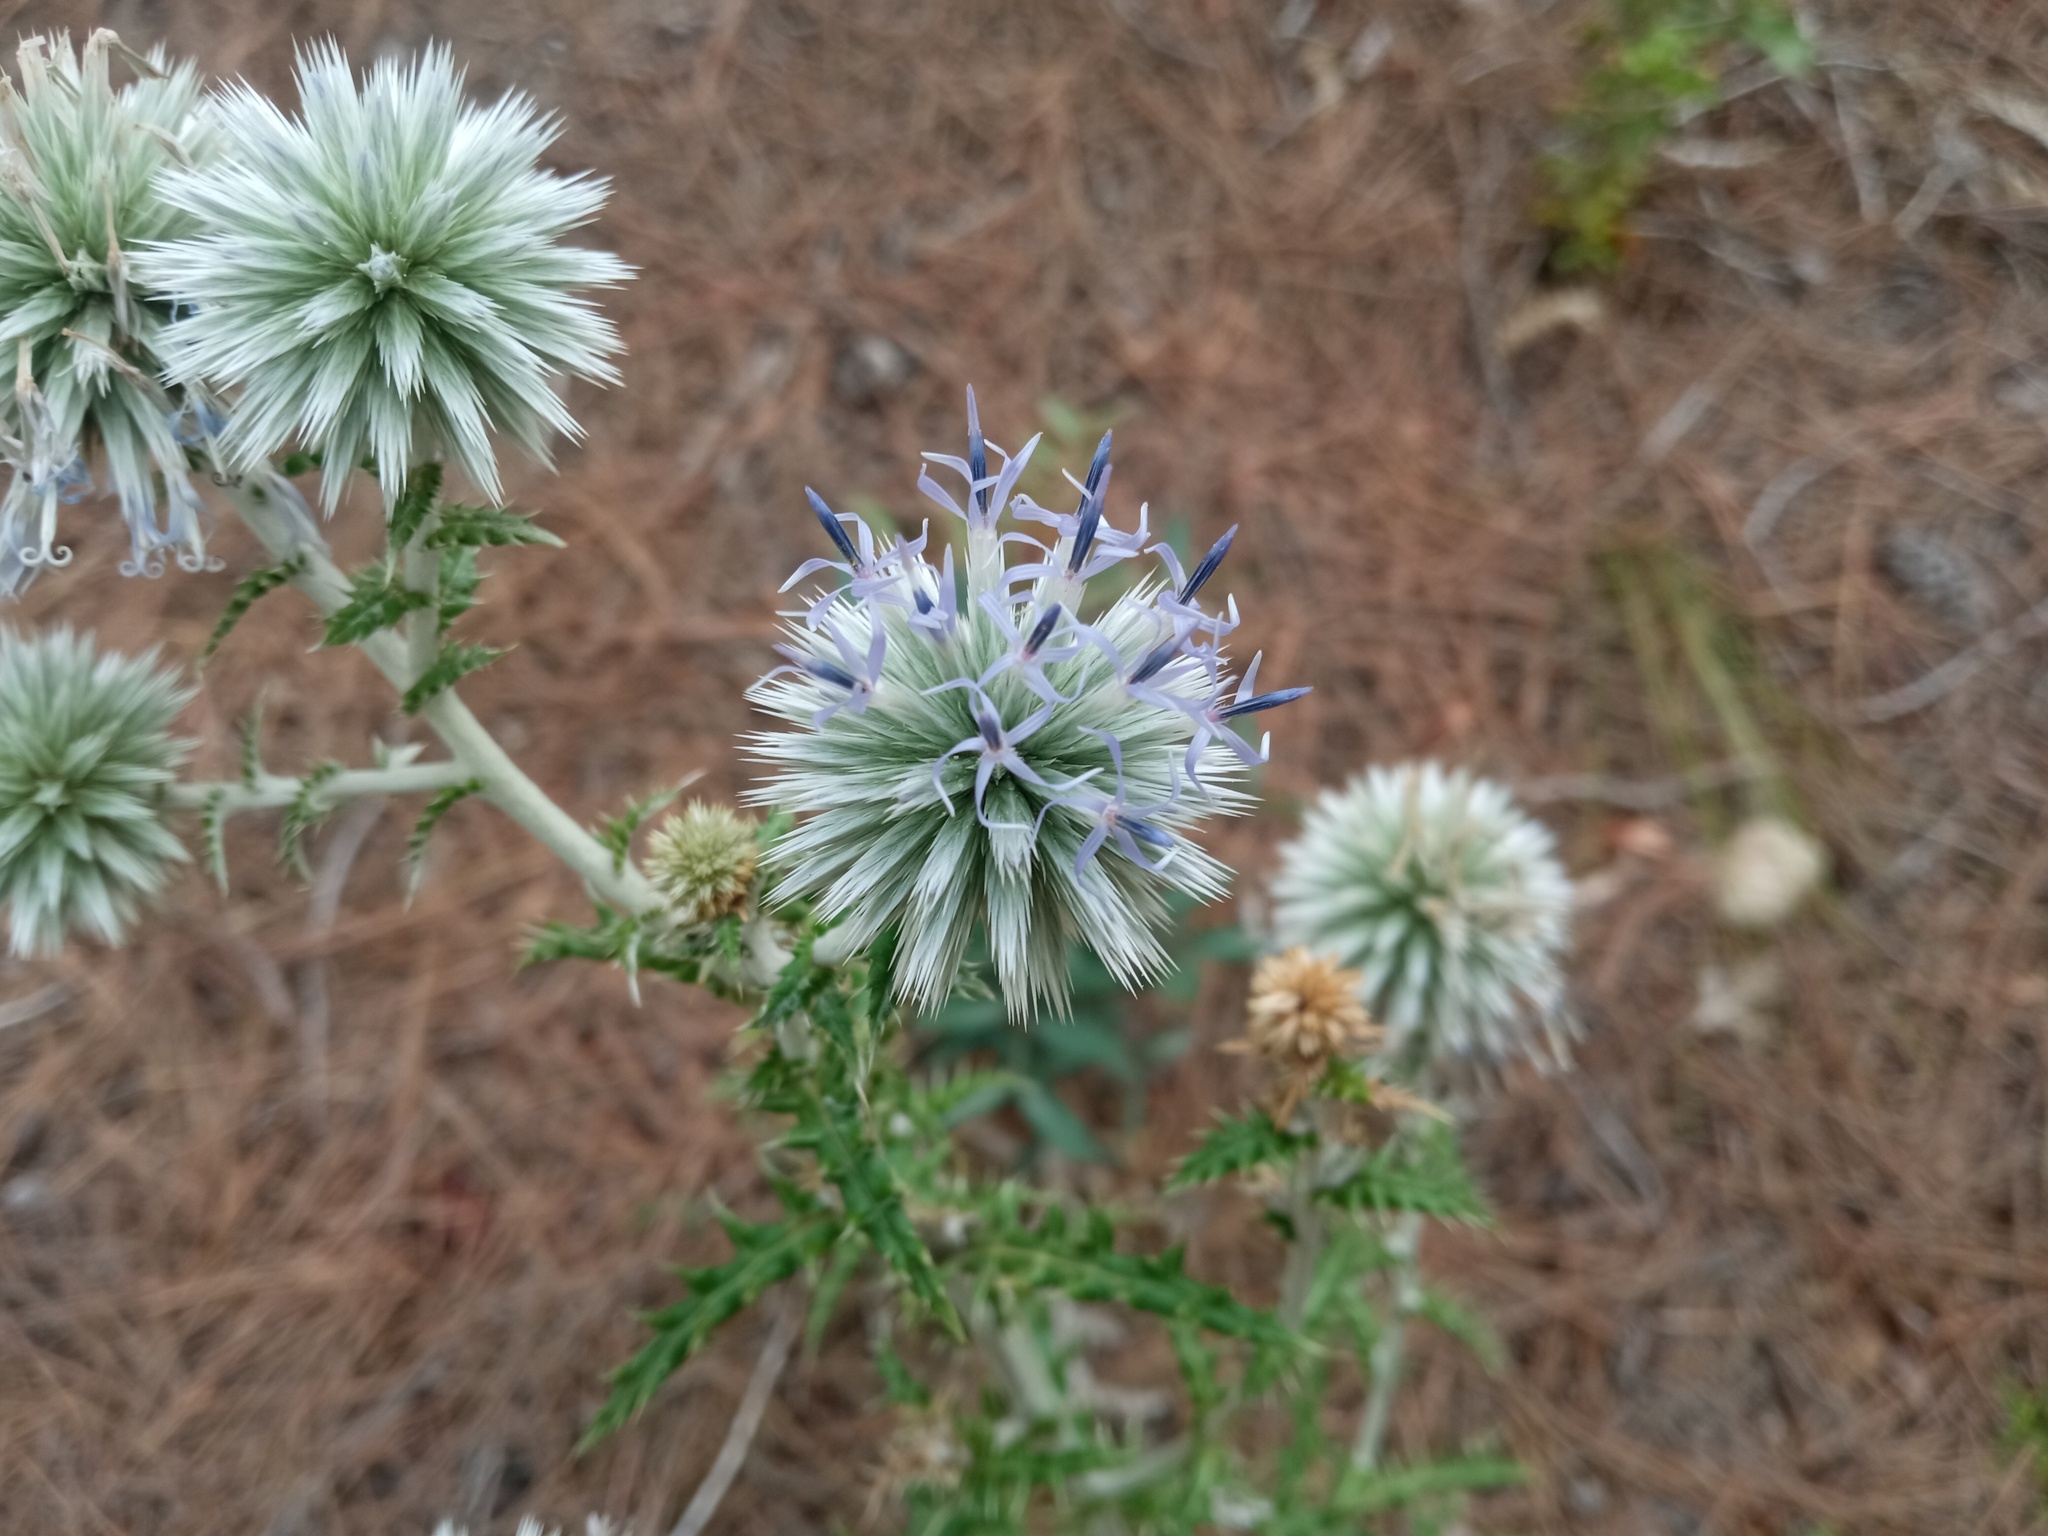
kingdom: Plantae
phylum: Tracheophyta
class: Magnoliopsida
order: Asterales
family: Asteraceae
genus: Echinops
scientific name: Echinops ritro
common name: Globe thistle
